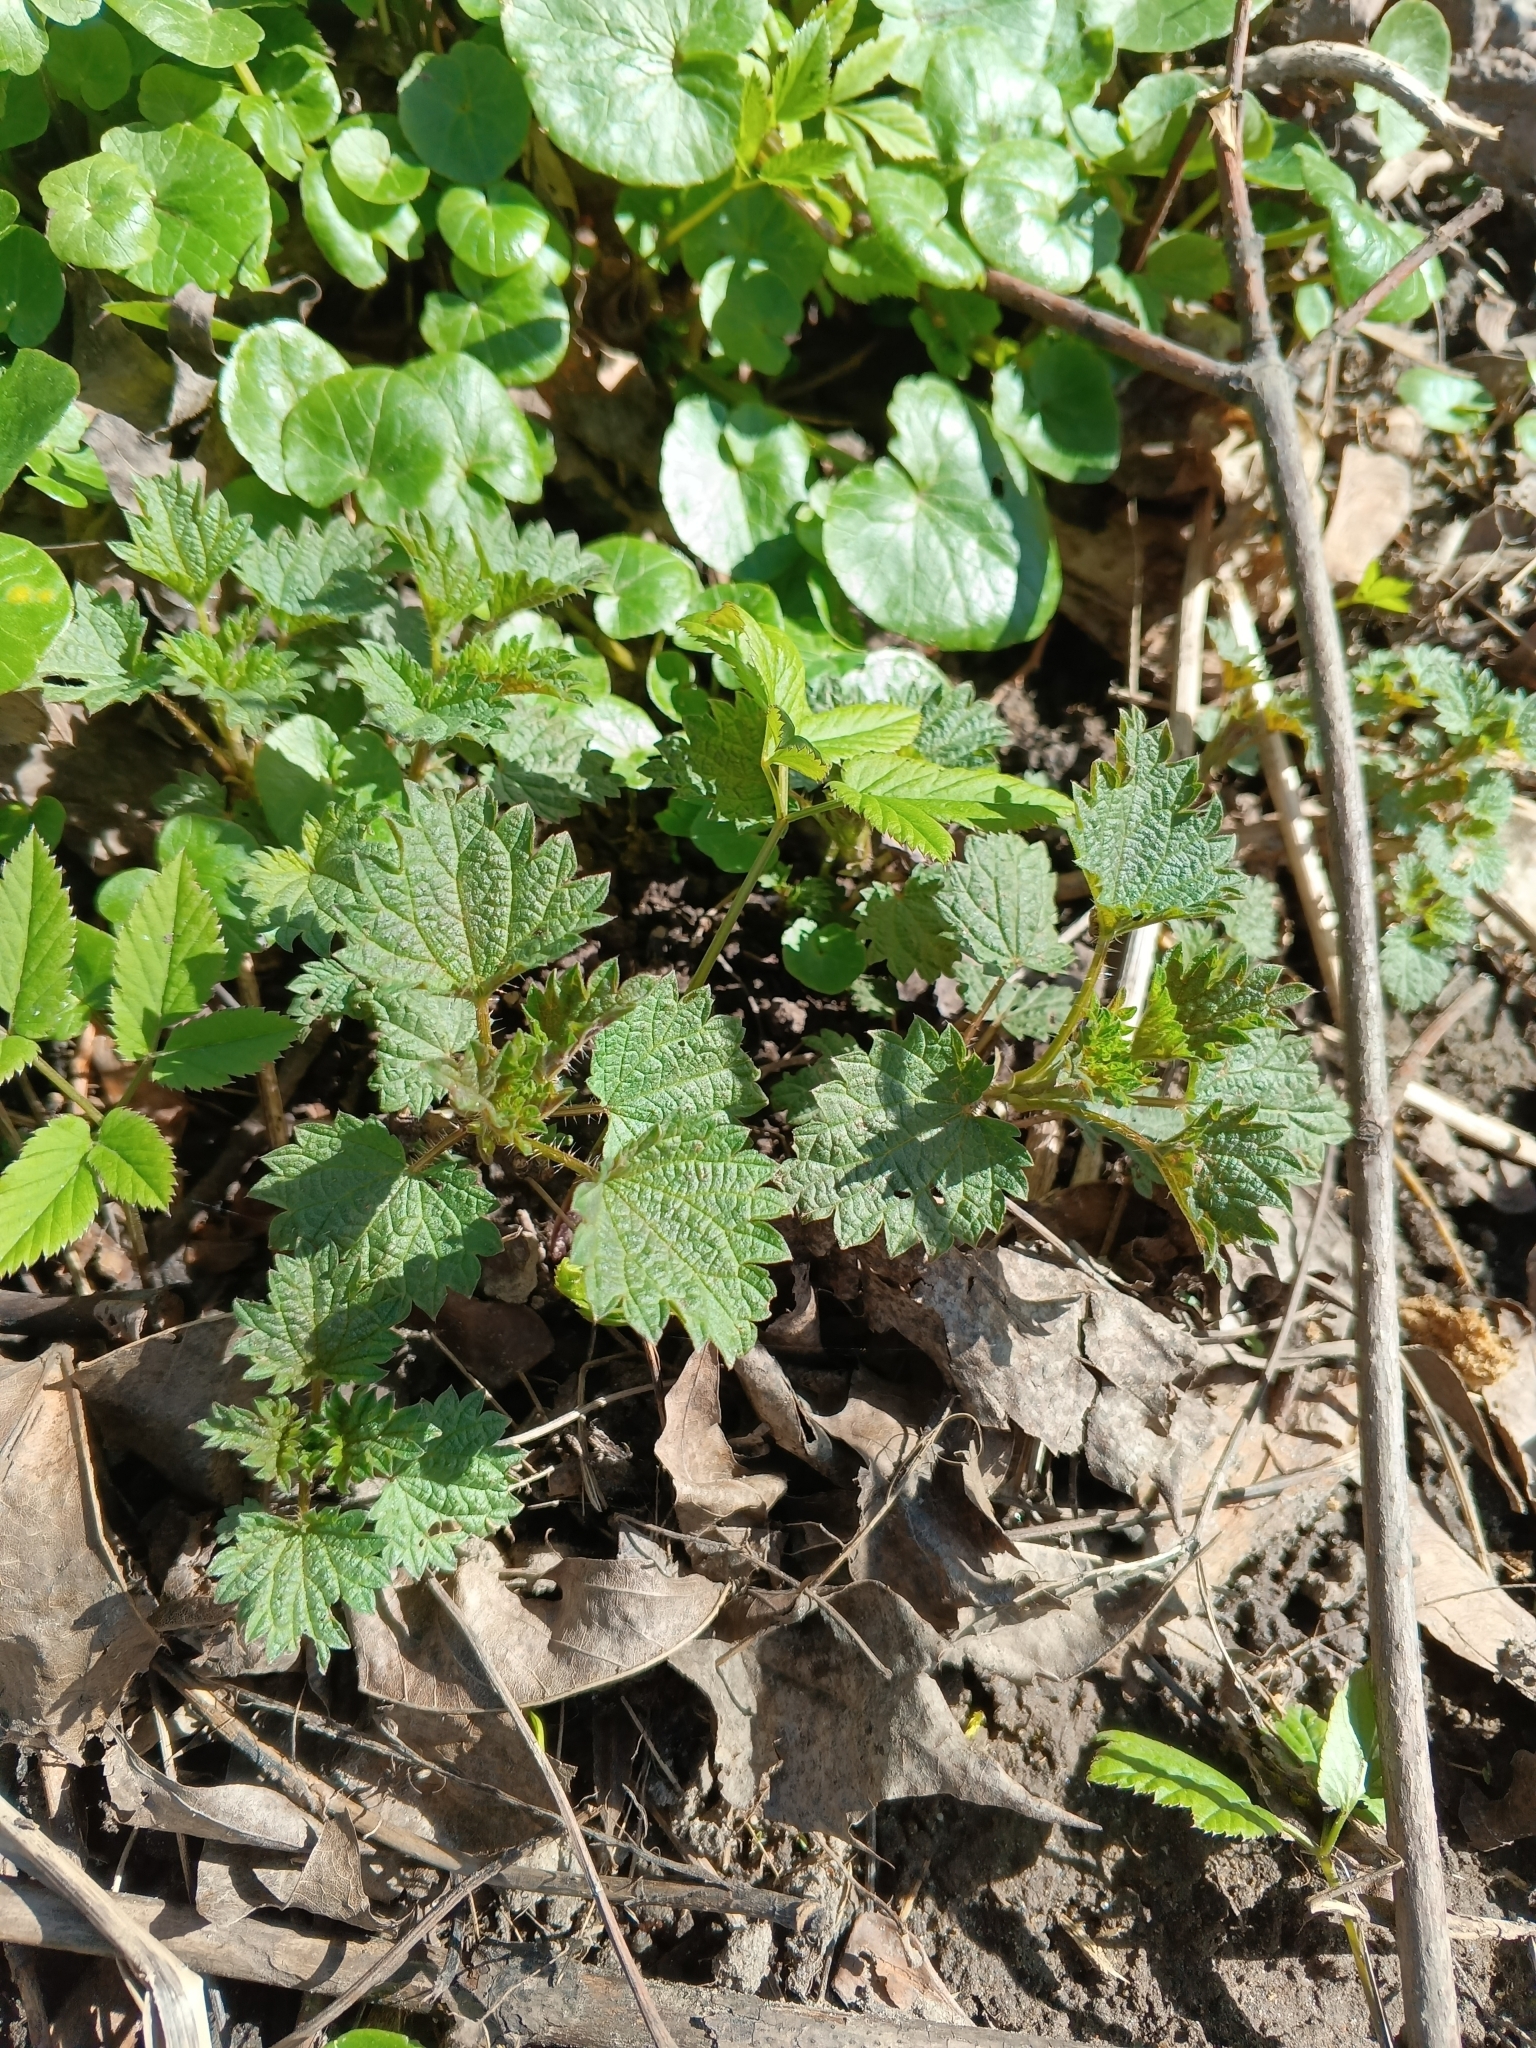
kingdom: Plantae
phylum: Tracheophyta
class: Magnoliopsida
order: Rosales
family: Urticaceae
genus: Urtica
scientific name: Urtica dioica
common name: Common nettle
